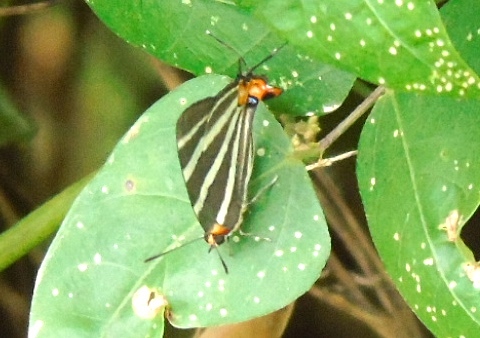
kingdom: Animalia
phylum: Arthropoda
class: Insecta
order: Lepidoptera
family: Lycaenidae
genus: Thecla
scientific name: Thecla bathildis
